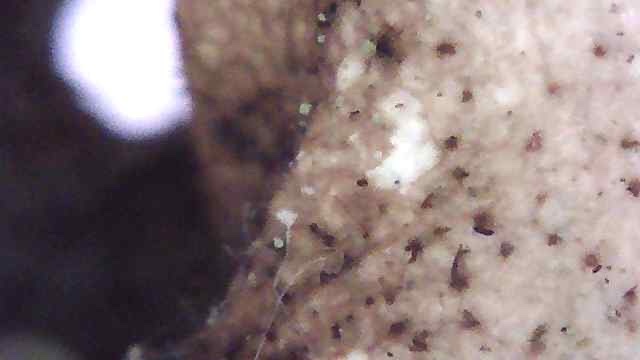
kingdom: Fungi
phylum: Ascomycota
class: Lecanoromycetes
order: Lecanorales
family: Parmeliaceae
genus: Cetrelia
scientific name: Cetrelia cetrarioides
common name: Speckled iceland lichen
